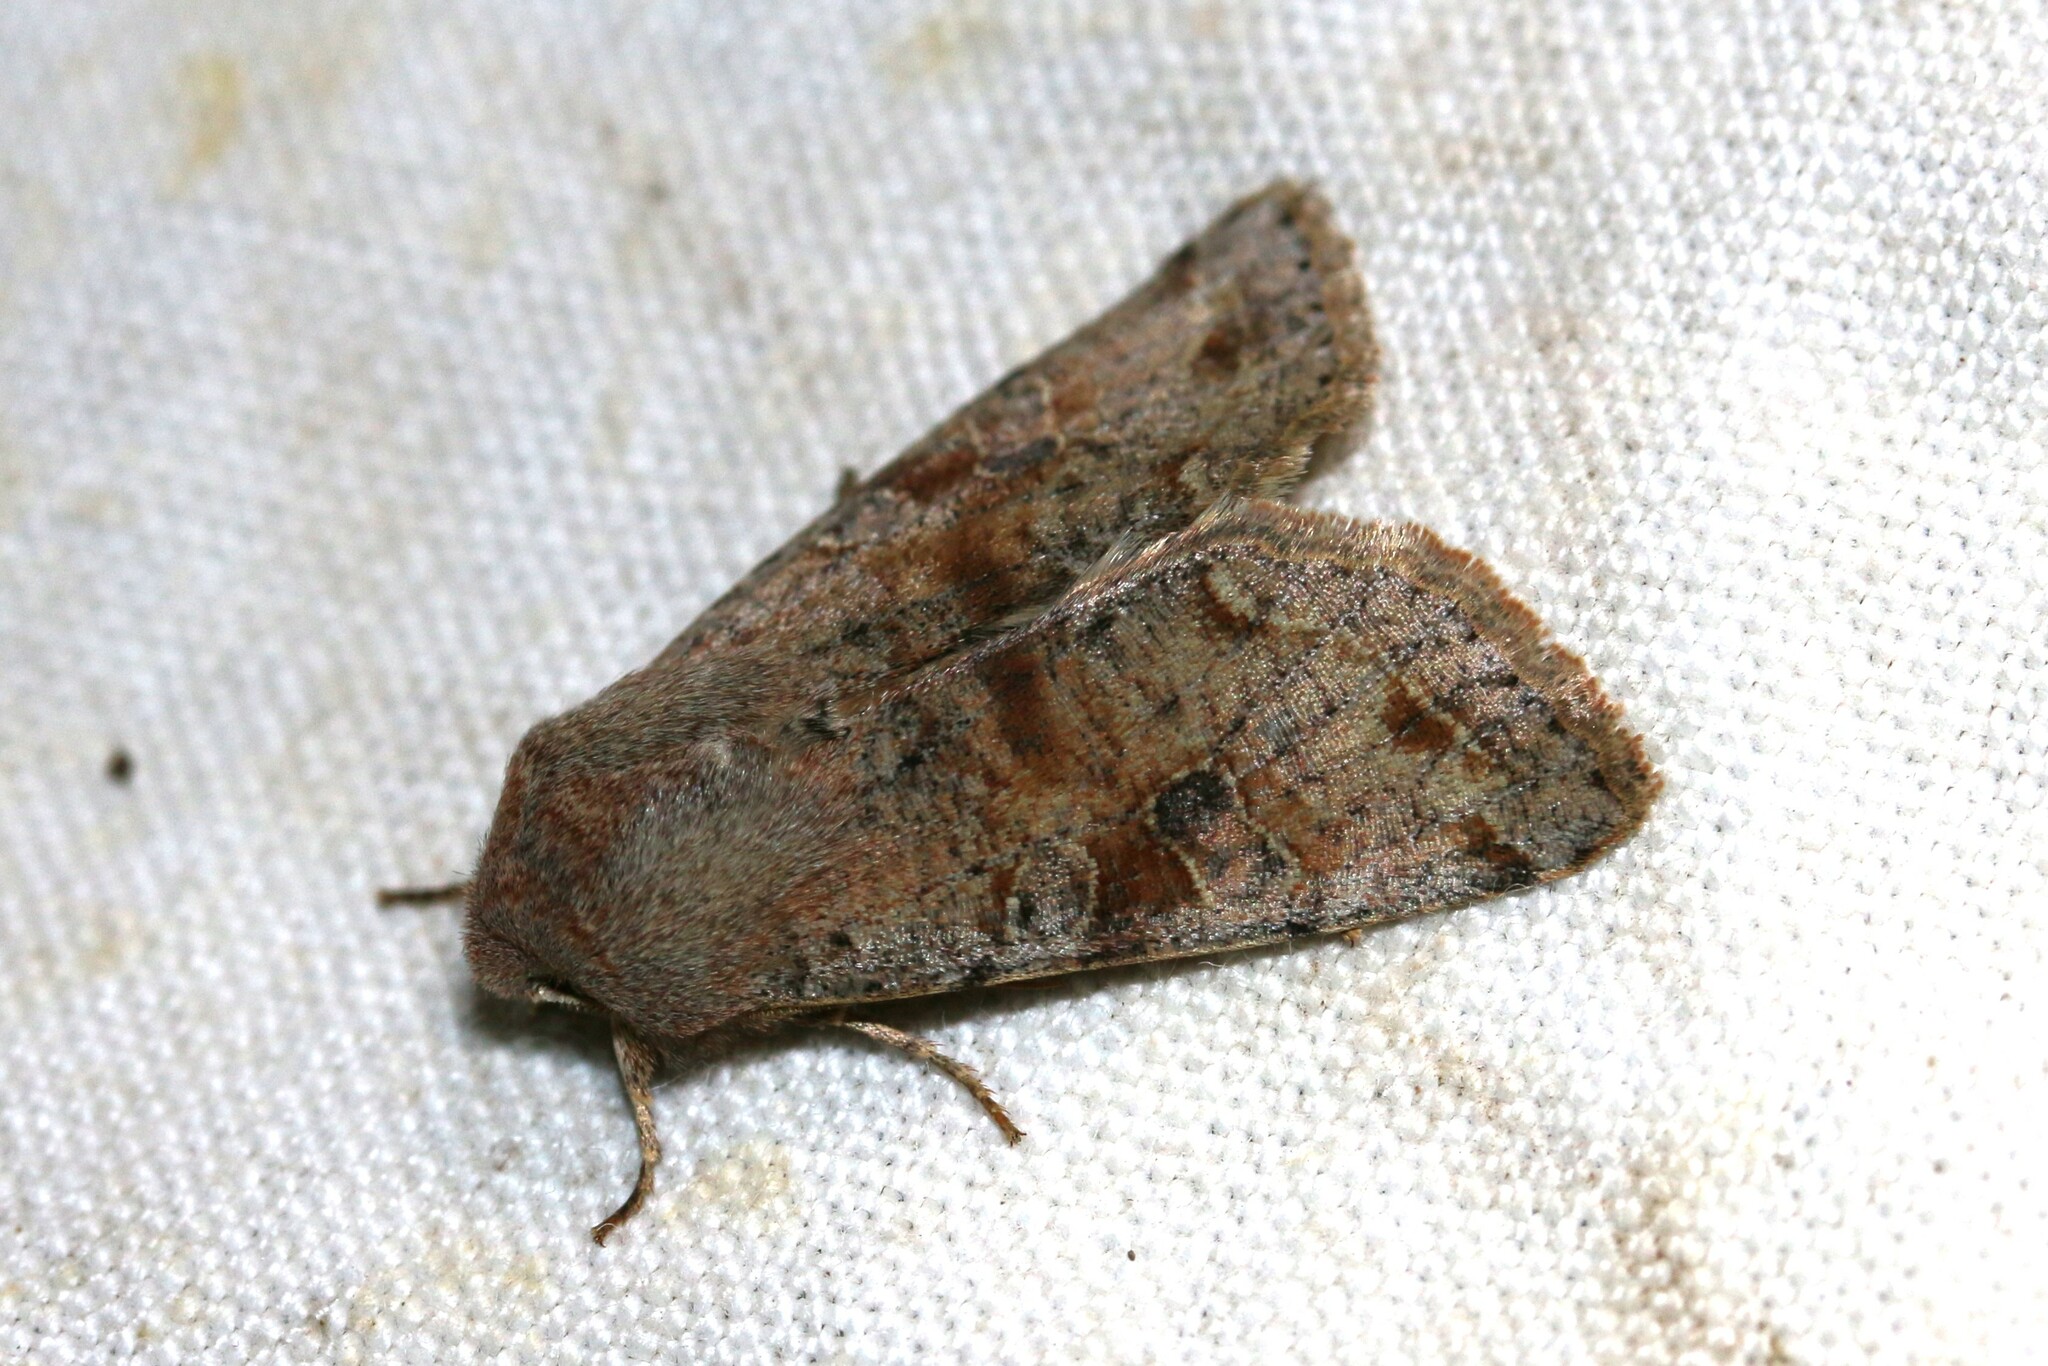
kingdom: Animalia
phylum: Arthropoda
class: Insecta
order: Lepidoptera
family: Noctuidae
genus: Orthosia
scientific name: Orthosia incerta
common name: Clouded drab
